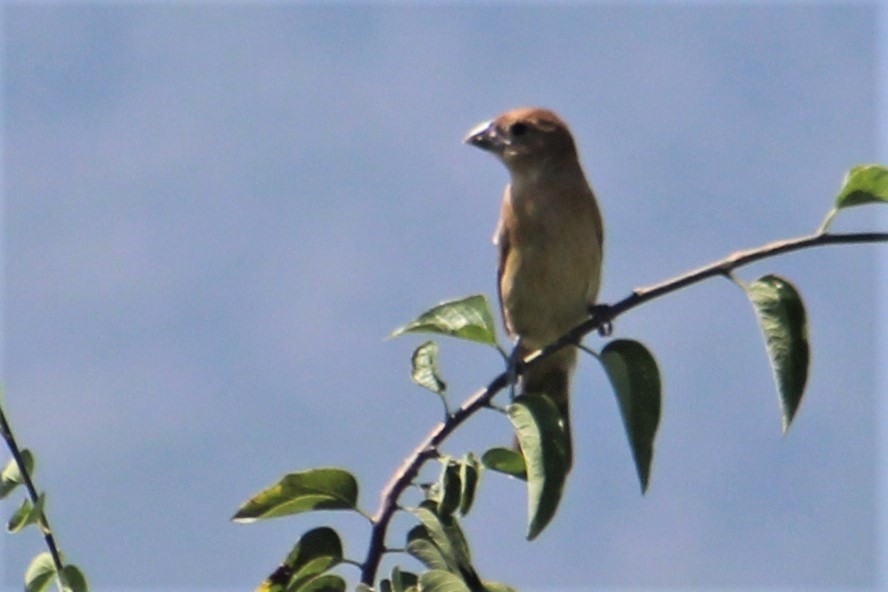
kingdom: Animalia
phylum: Chordata
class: Aves
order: Passeriformes
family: Cardinalidae
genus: Passerina
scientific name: Passerina caerulea
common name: Blue grosbeak
